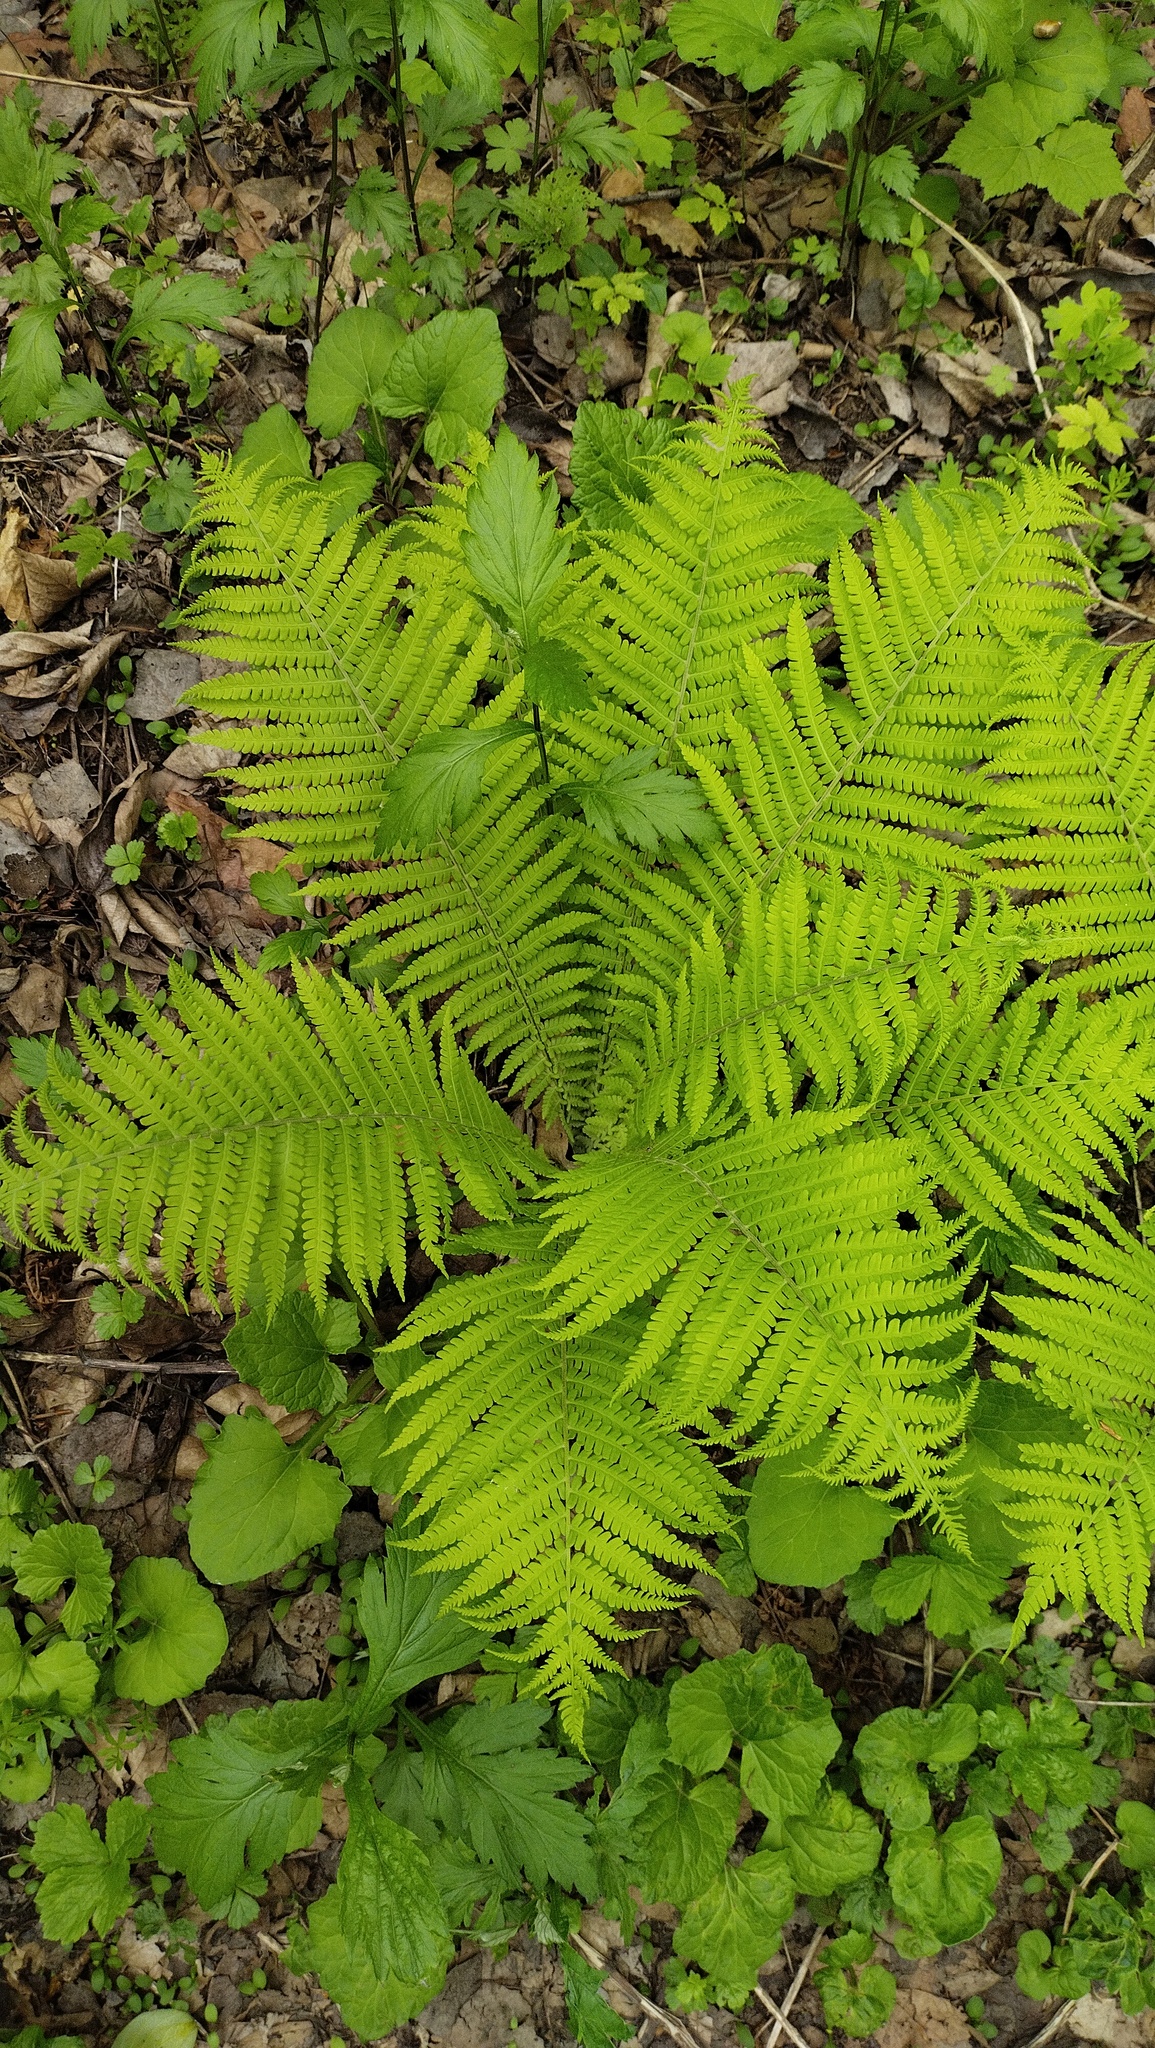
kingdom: Plantae
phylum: Tracheophyta
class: Polypodiopsida
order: Polypodiales
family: Onocleaceae
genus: Matteuccia
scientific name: Matteuccia struthiopteris
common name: Ostrich fern
